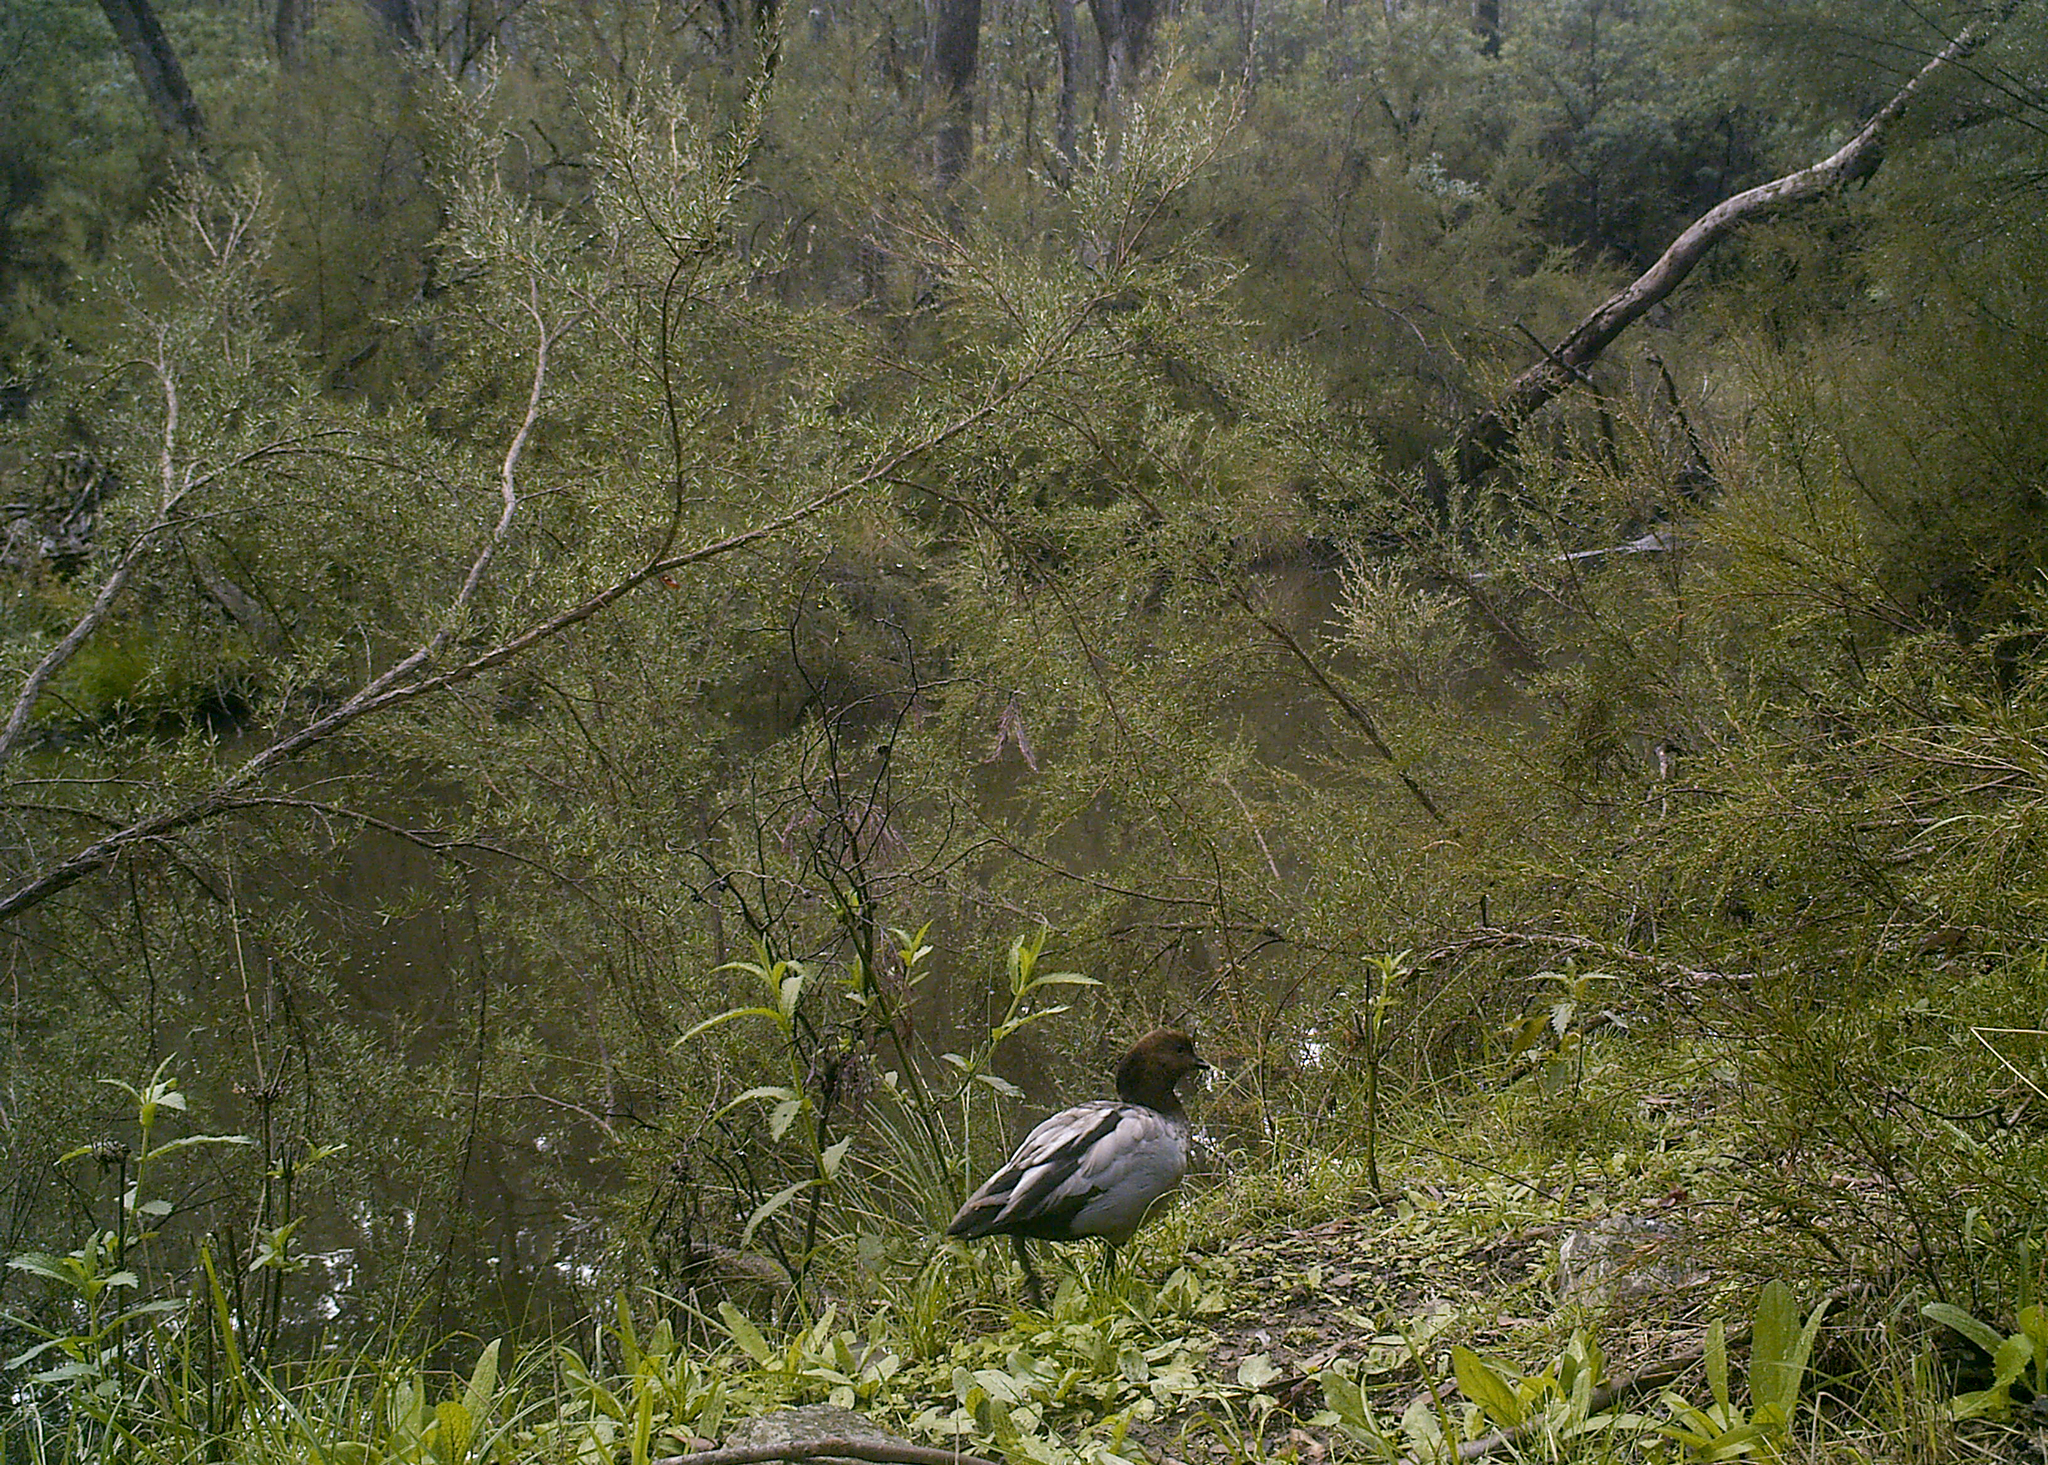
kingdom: Animalia
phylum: Chordata
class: Aves
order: Anseriformes
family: Anatidae
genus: Chenonetta
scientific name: Chenonetta jubata
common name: Maned duck
